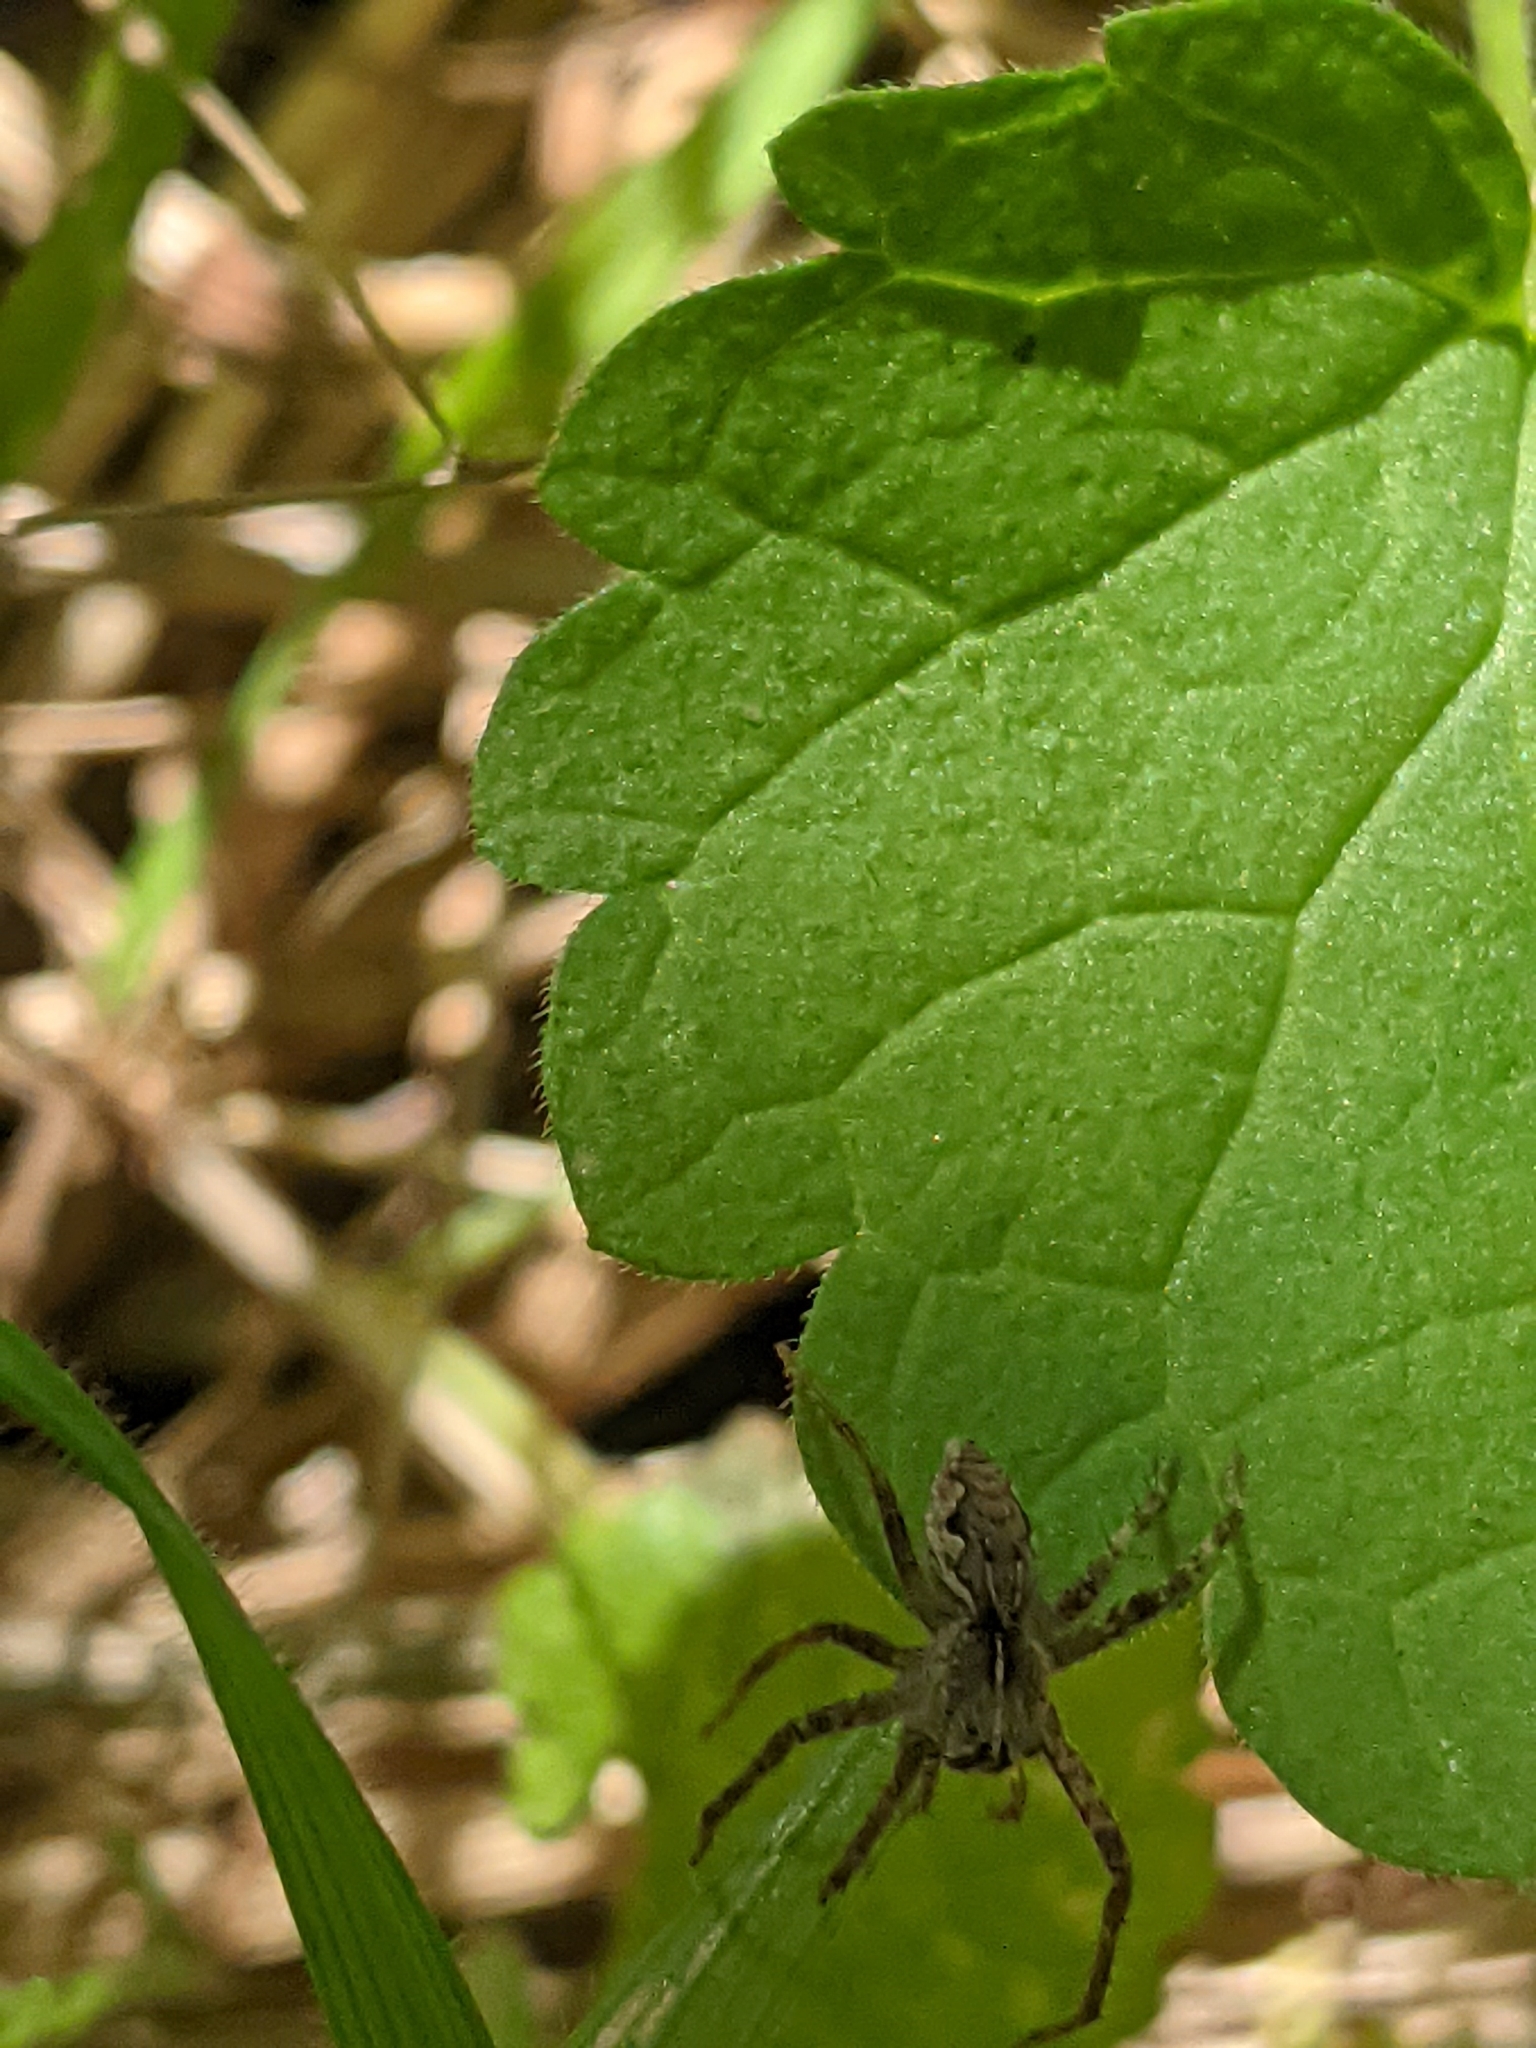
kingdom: Animalia
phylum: Arthropoda
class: Arachnida
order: Araneae
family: Pisauridae
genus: Pisaura
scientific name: Pisaura mirabilis
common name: Tent spider
